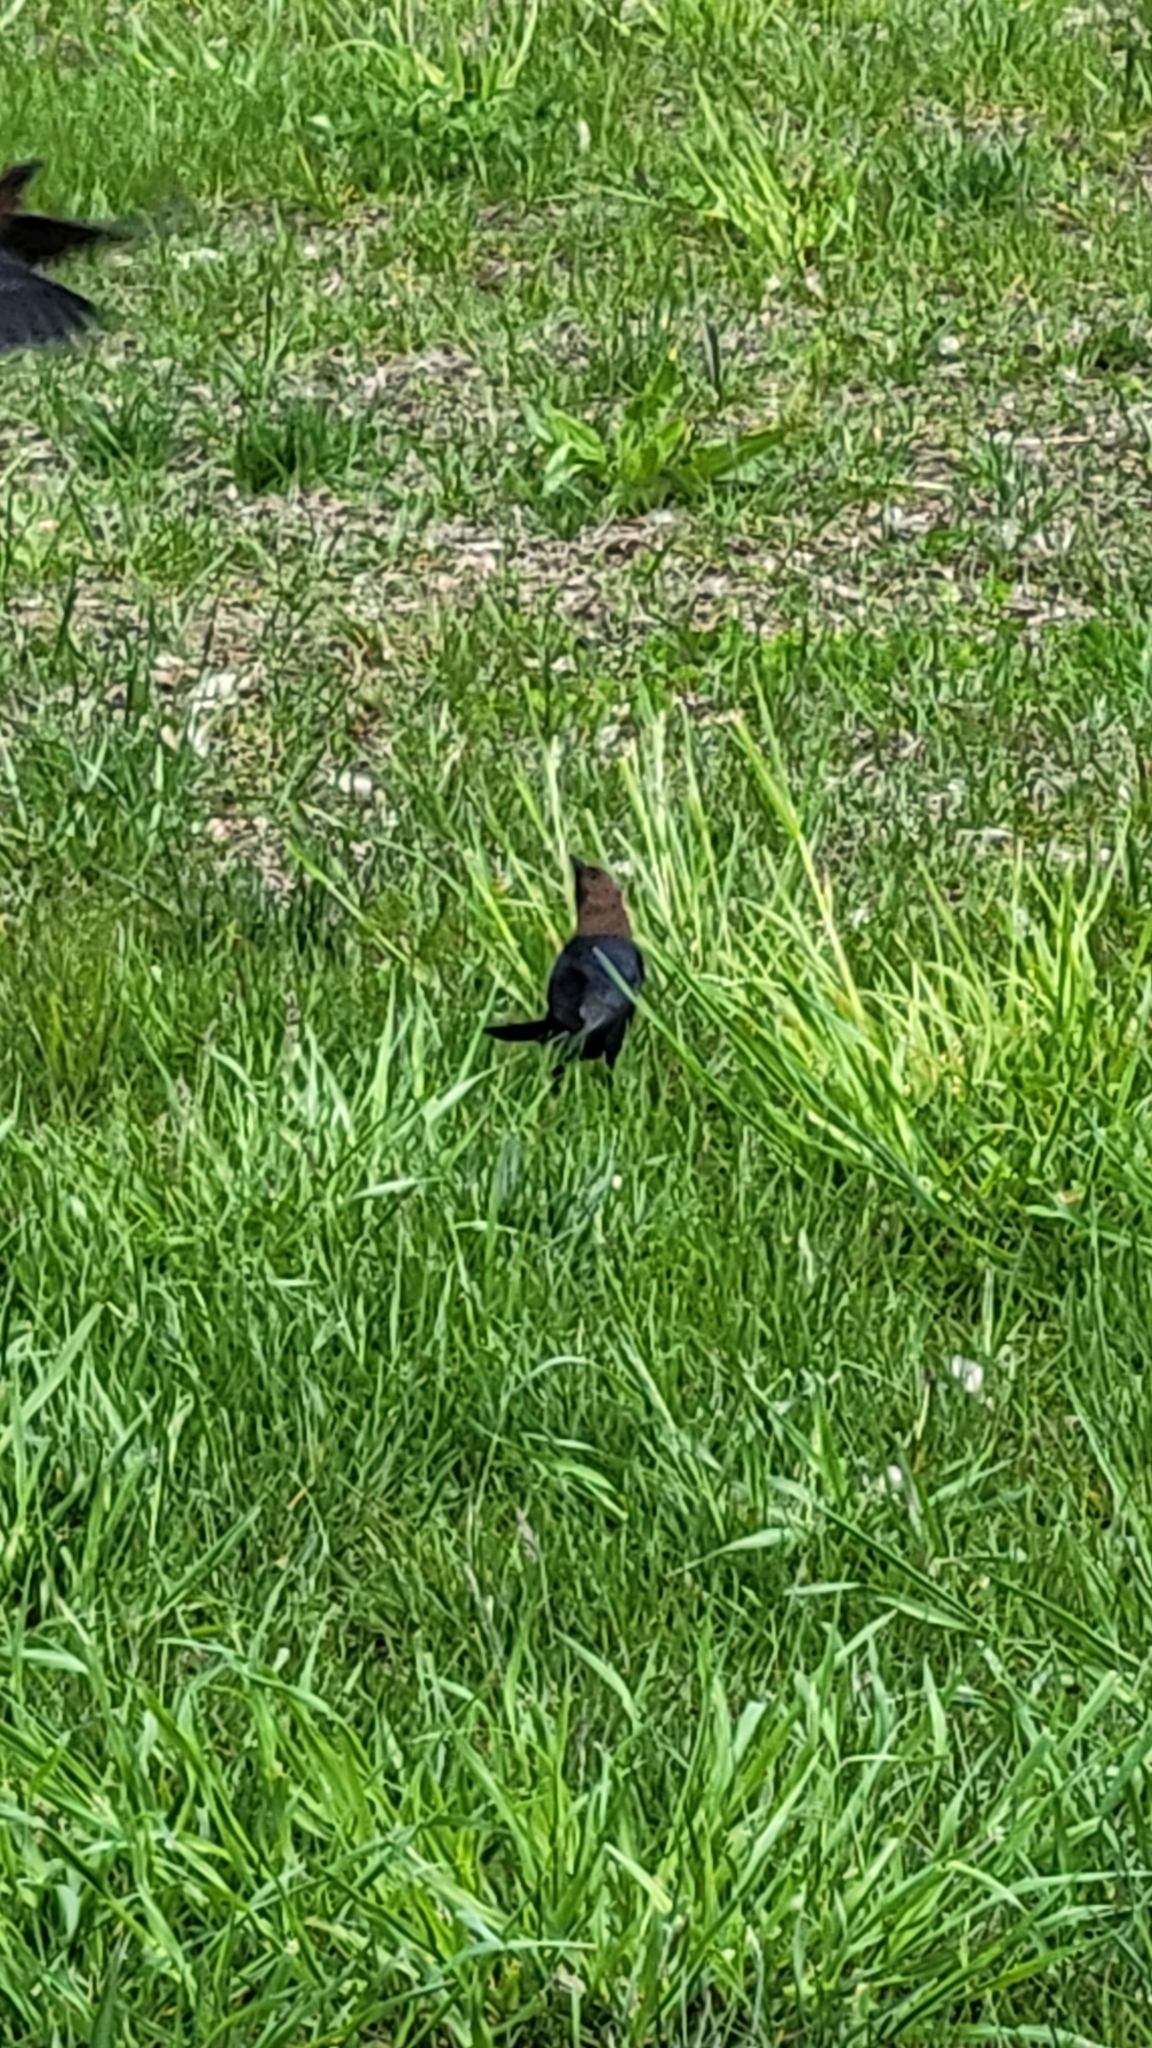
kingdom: Animalia
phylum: Chordata
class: Aves
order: Passeriformes
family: Icteridae
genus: Molothrus
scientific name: Molothrus ater
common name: Brown-headed cowbird
